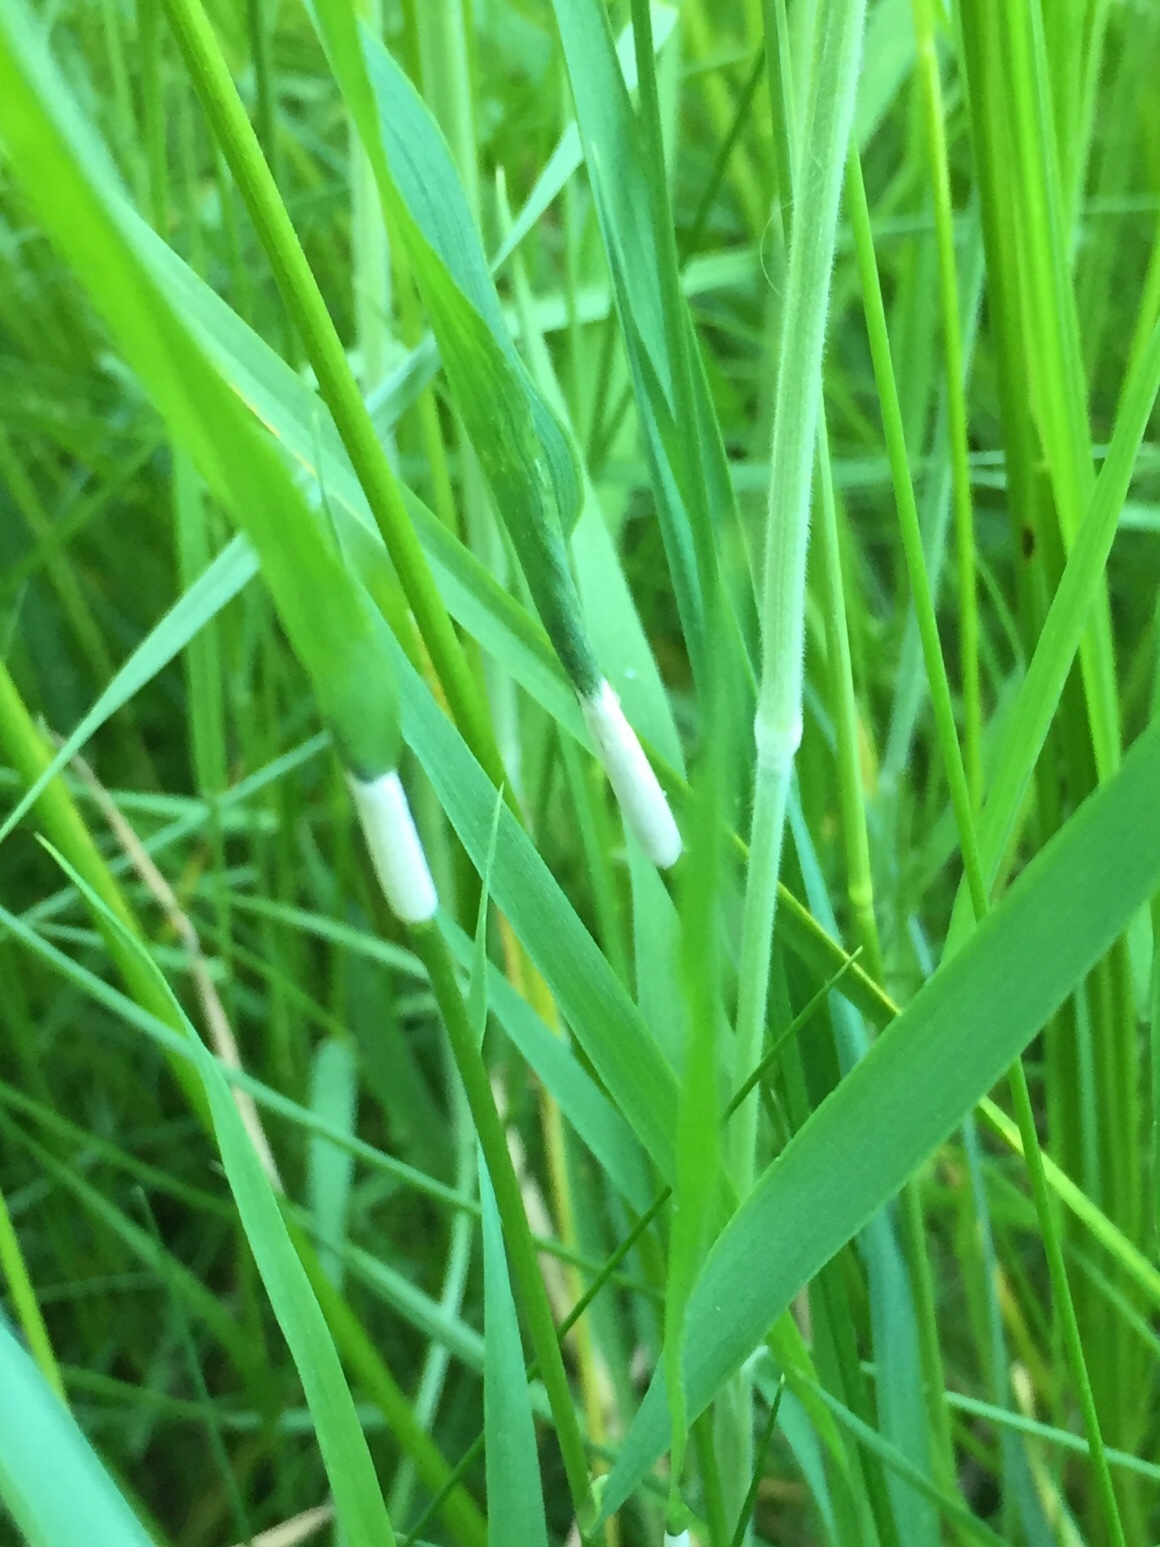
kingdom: Fungi
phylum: Ascomycota
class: Sordariomycetes
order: Hypocreales
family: Clavicipitaceae
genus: Epichloe
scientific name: Epichloe clarkii
